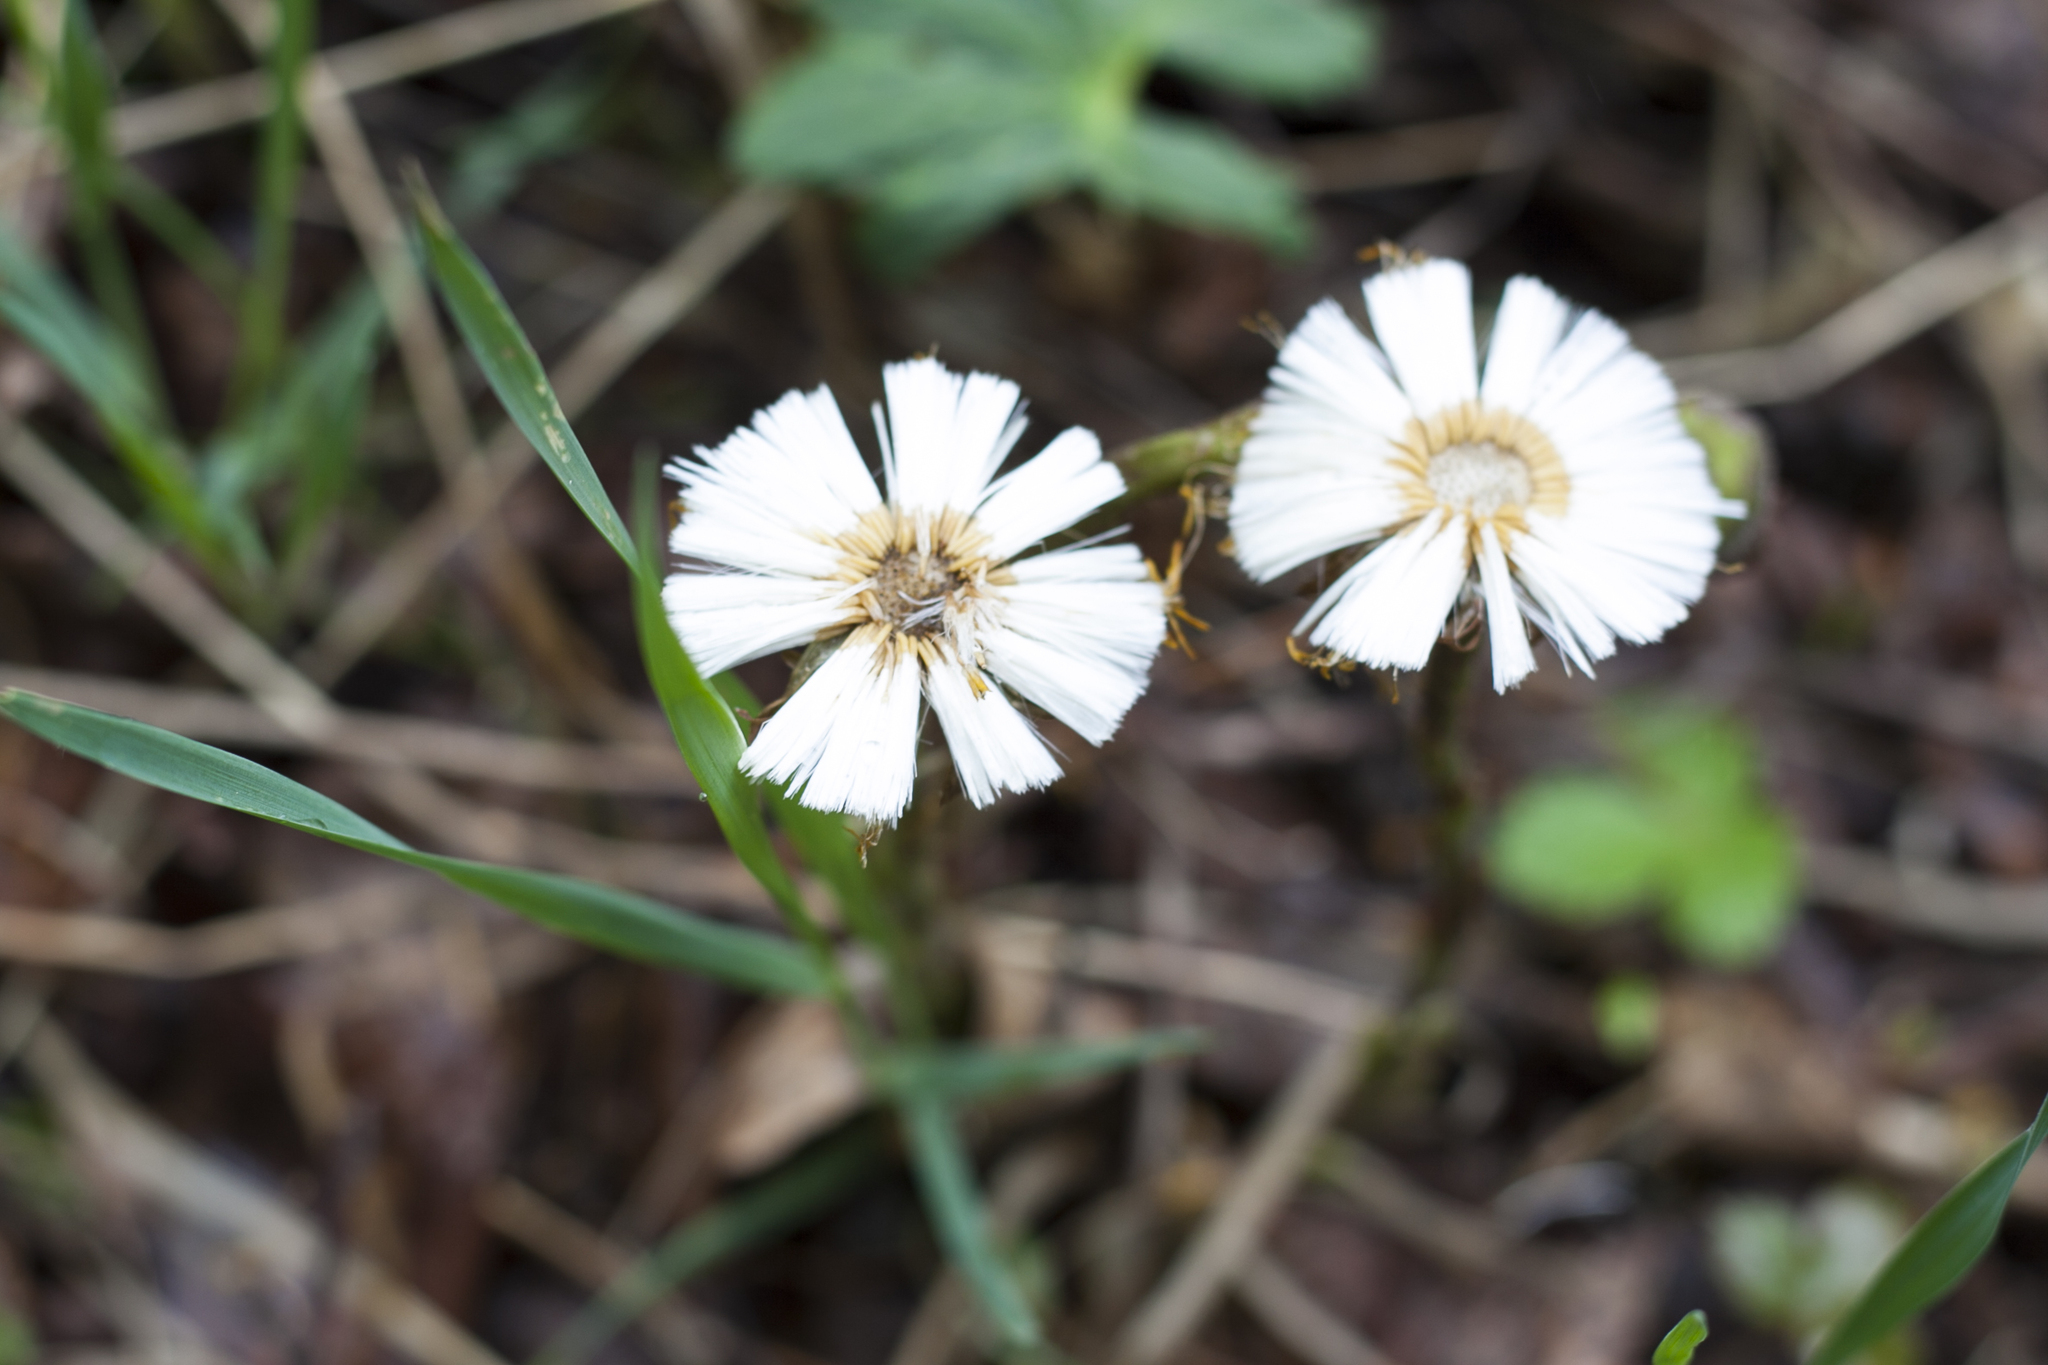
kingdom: Plantae
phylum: Tracheophyta
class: Magnoliopsida
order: Asterales
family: Asteraceae
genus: Tussilago
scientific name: Tussilago farfara
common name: Coltsfoot
